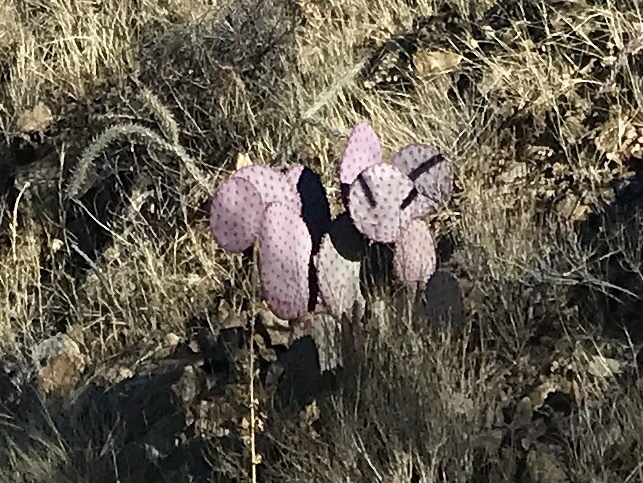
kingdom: Plantae
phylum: Tracheophyta
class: Magnoliopsida
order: Caryophyllales
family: Cactaceae
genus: Opuntia
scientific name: Opuntia gosseliniana
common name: Violet prickly-pear
